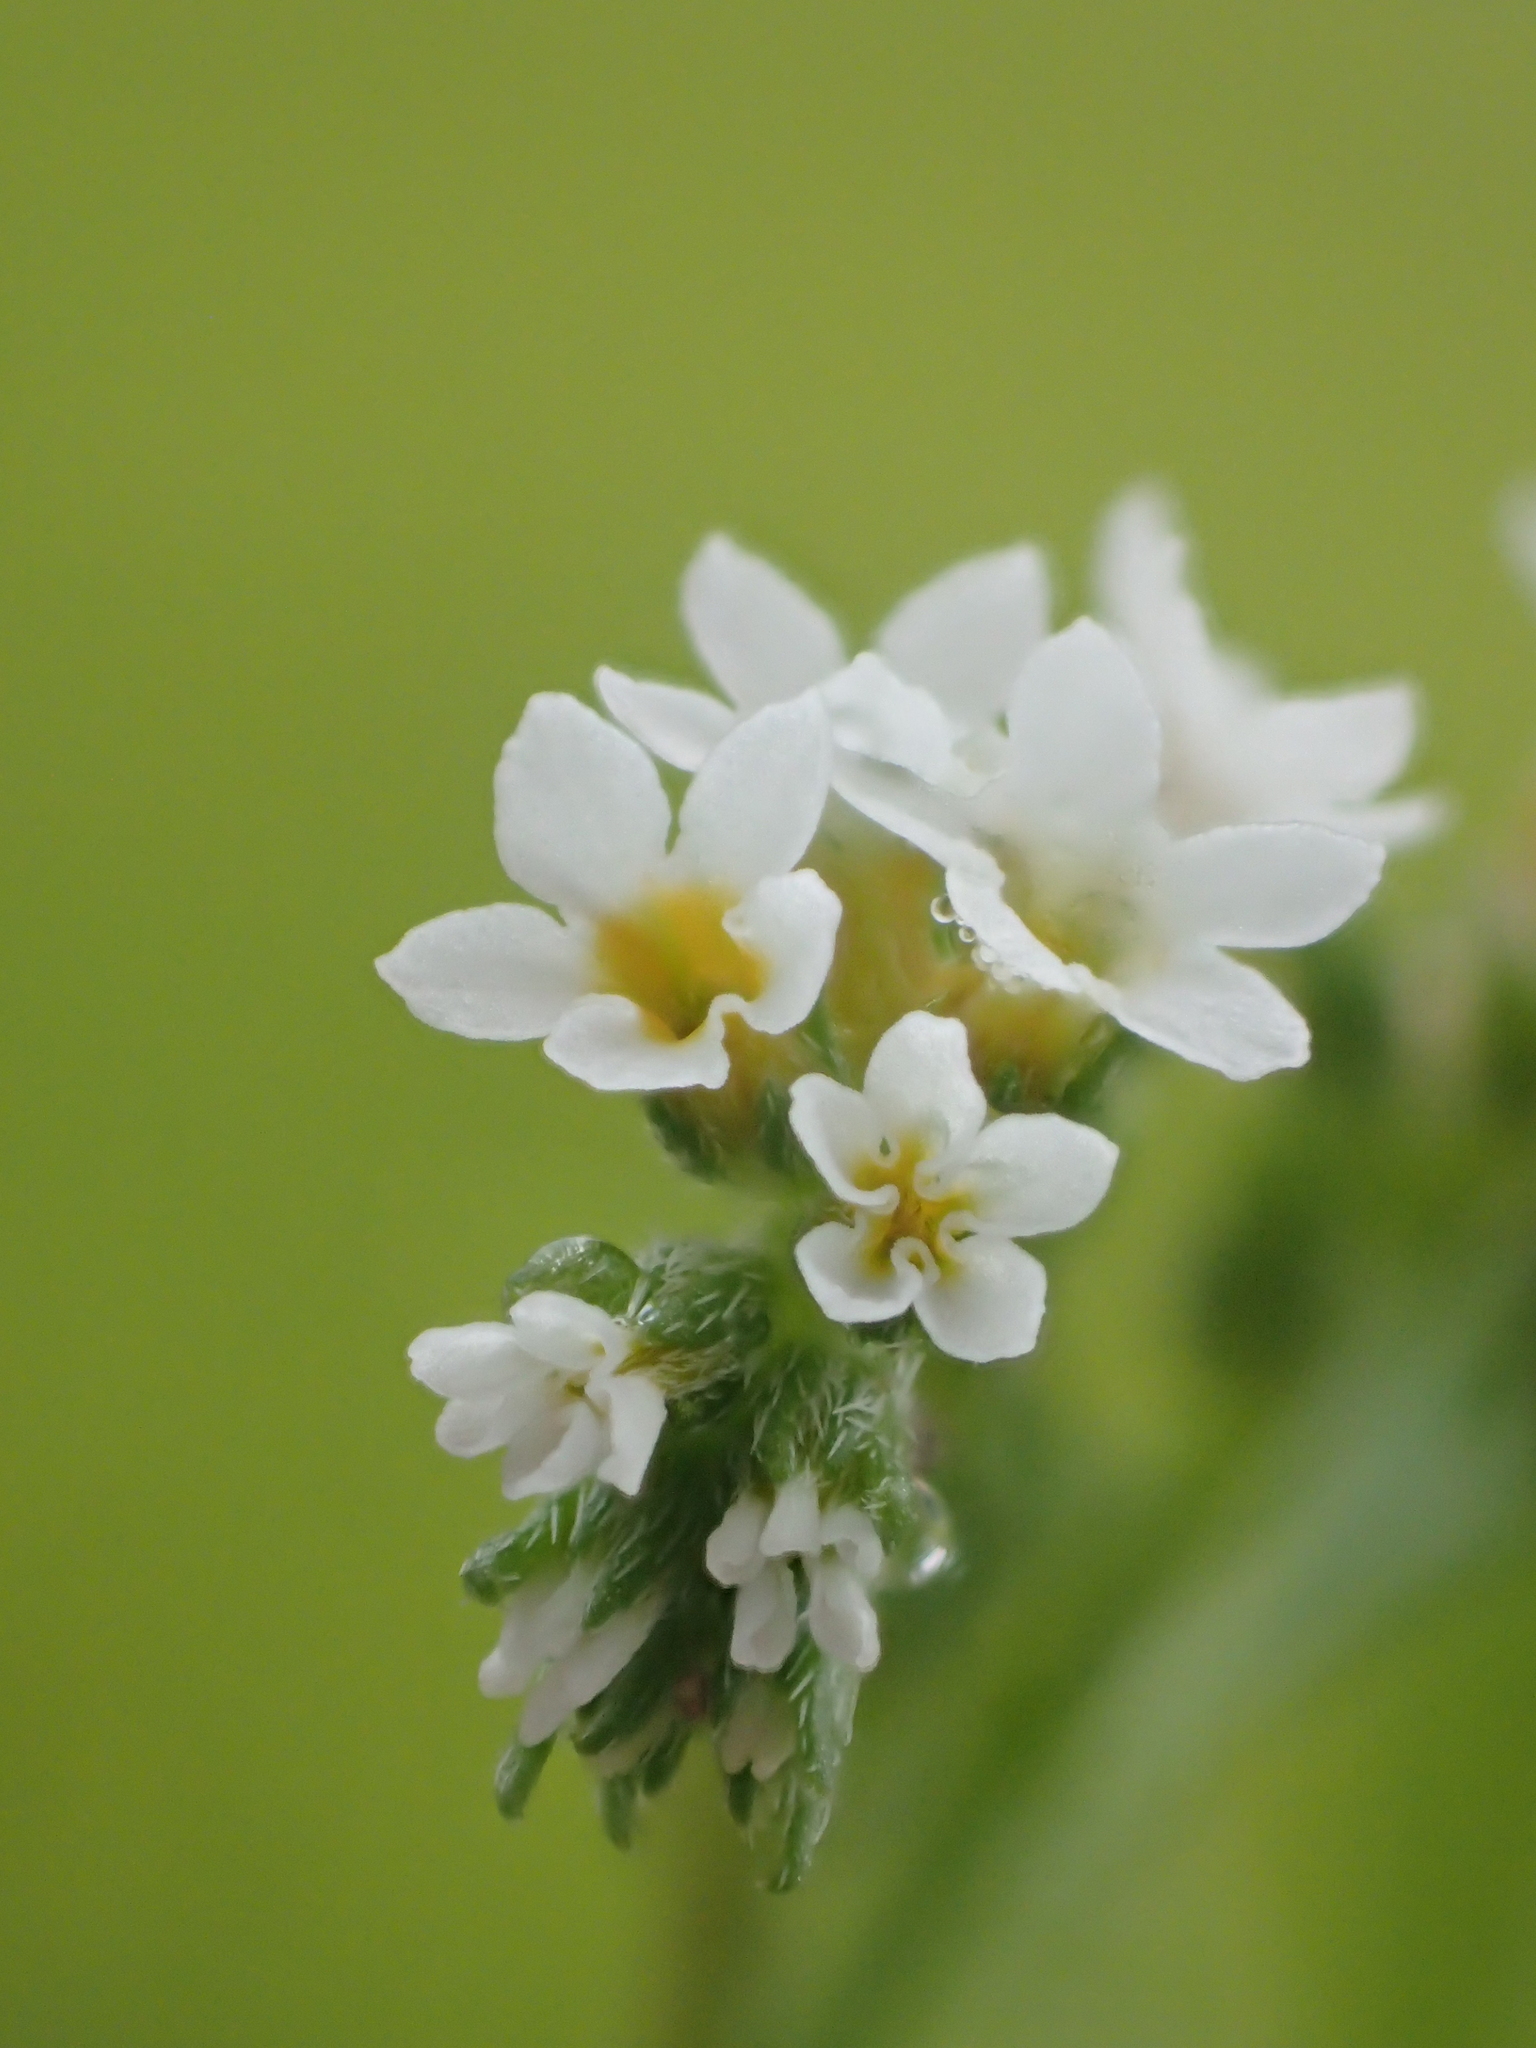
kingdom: Plantae
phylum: Tracheophyta
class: Magnoliopsida
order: Boraginales
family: Heliotropiaceae
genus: Euploca
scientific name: Euploca procumbens
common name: Fourspike heliotrope
